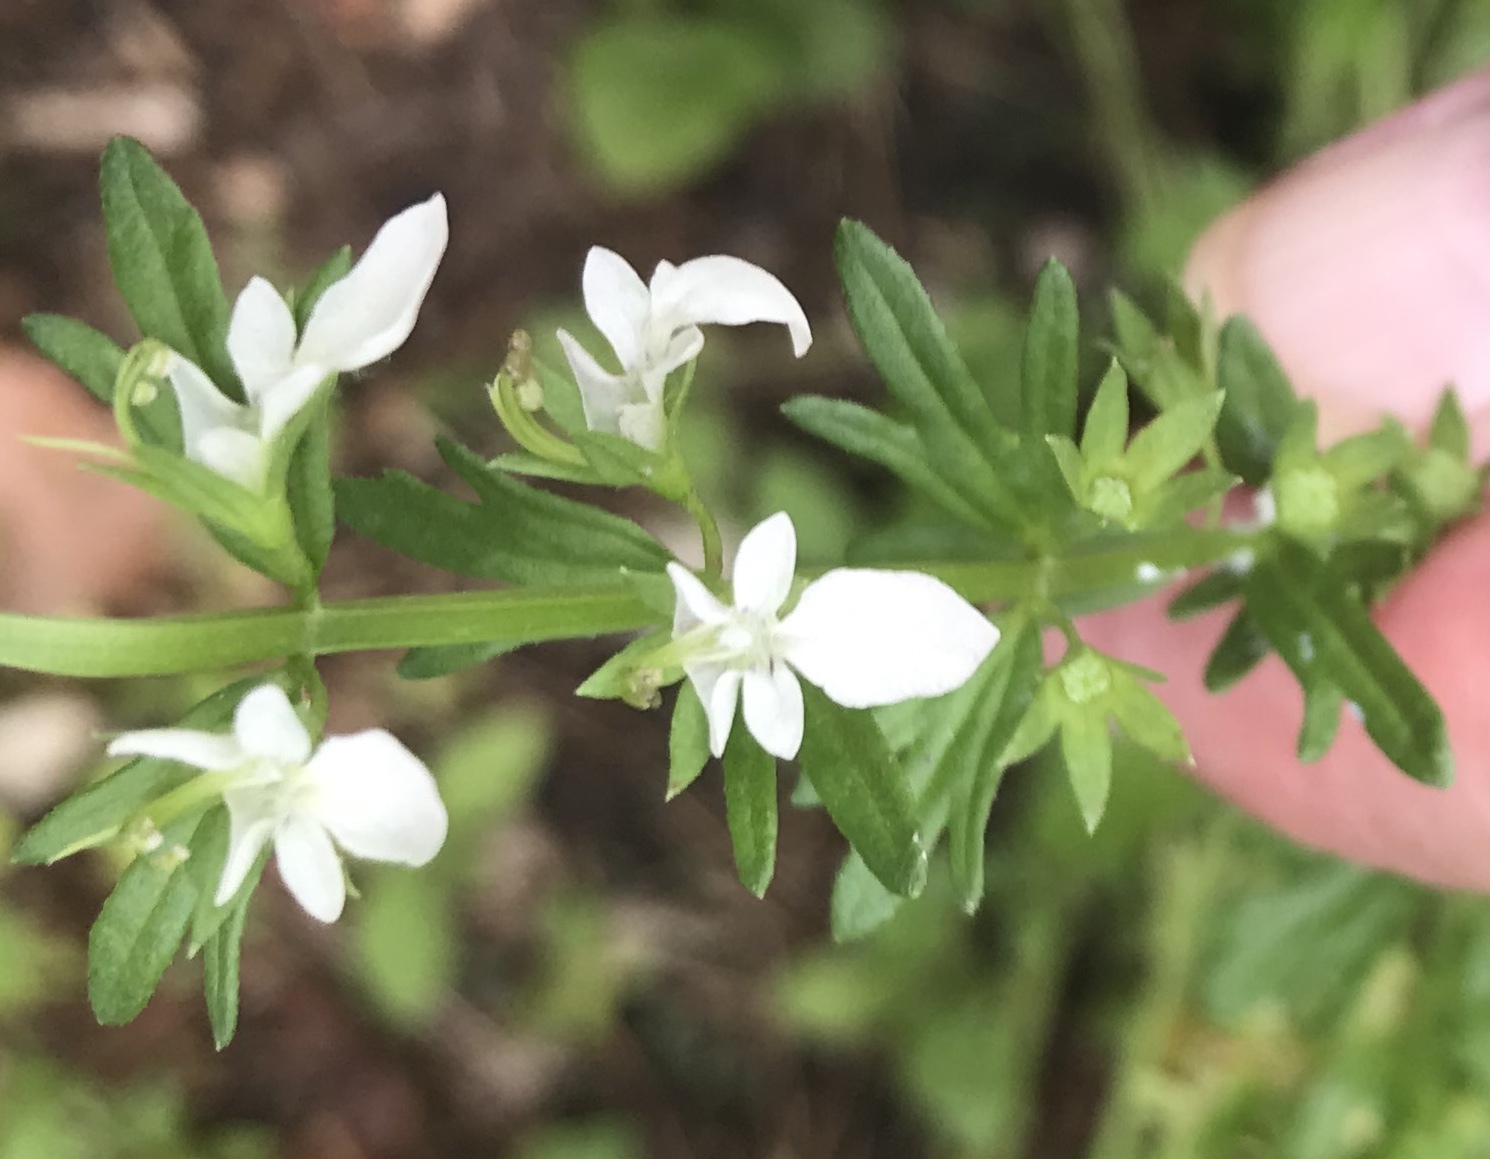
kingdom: Plantae
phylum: Tracheophyta
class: Magnoliopsida
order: Lamiales
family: Lamiaceae
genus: Teucrium
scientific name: Teucrium cubense
